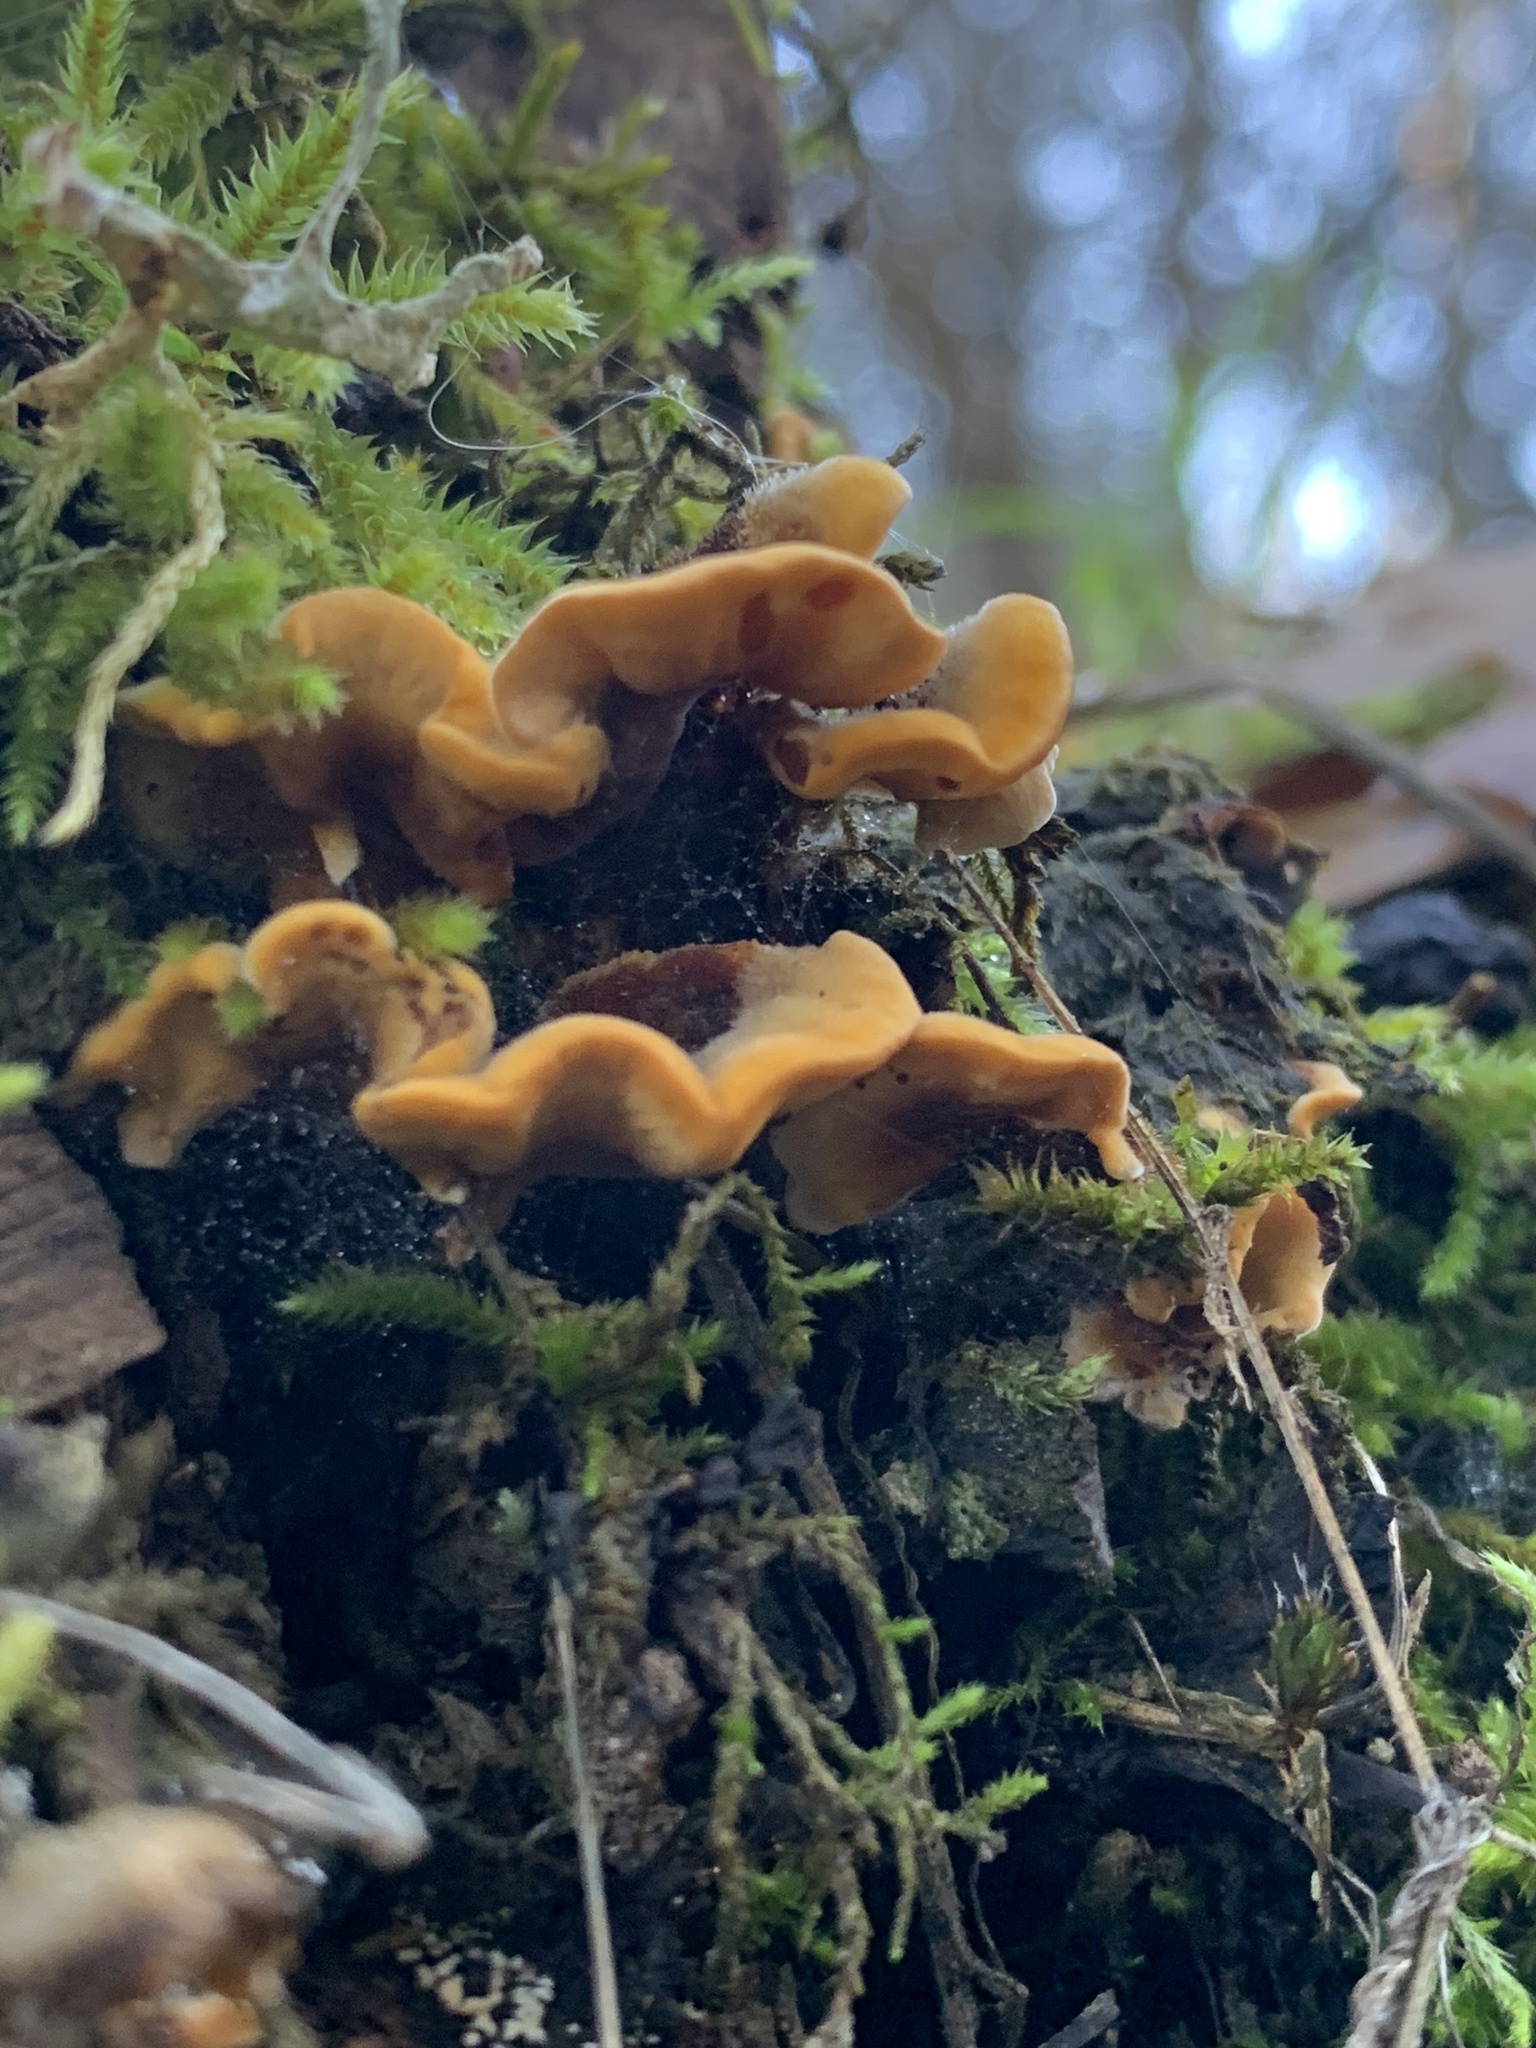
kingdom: Fungi
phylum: Basidiomycota
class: Agaricomycetes
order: Russulales
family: Stereaceae
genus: Stereum
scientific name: Stereum hirsutum
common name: Hairy curtain crust
